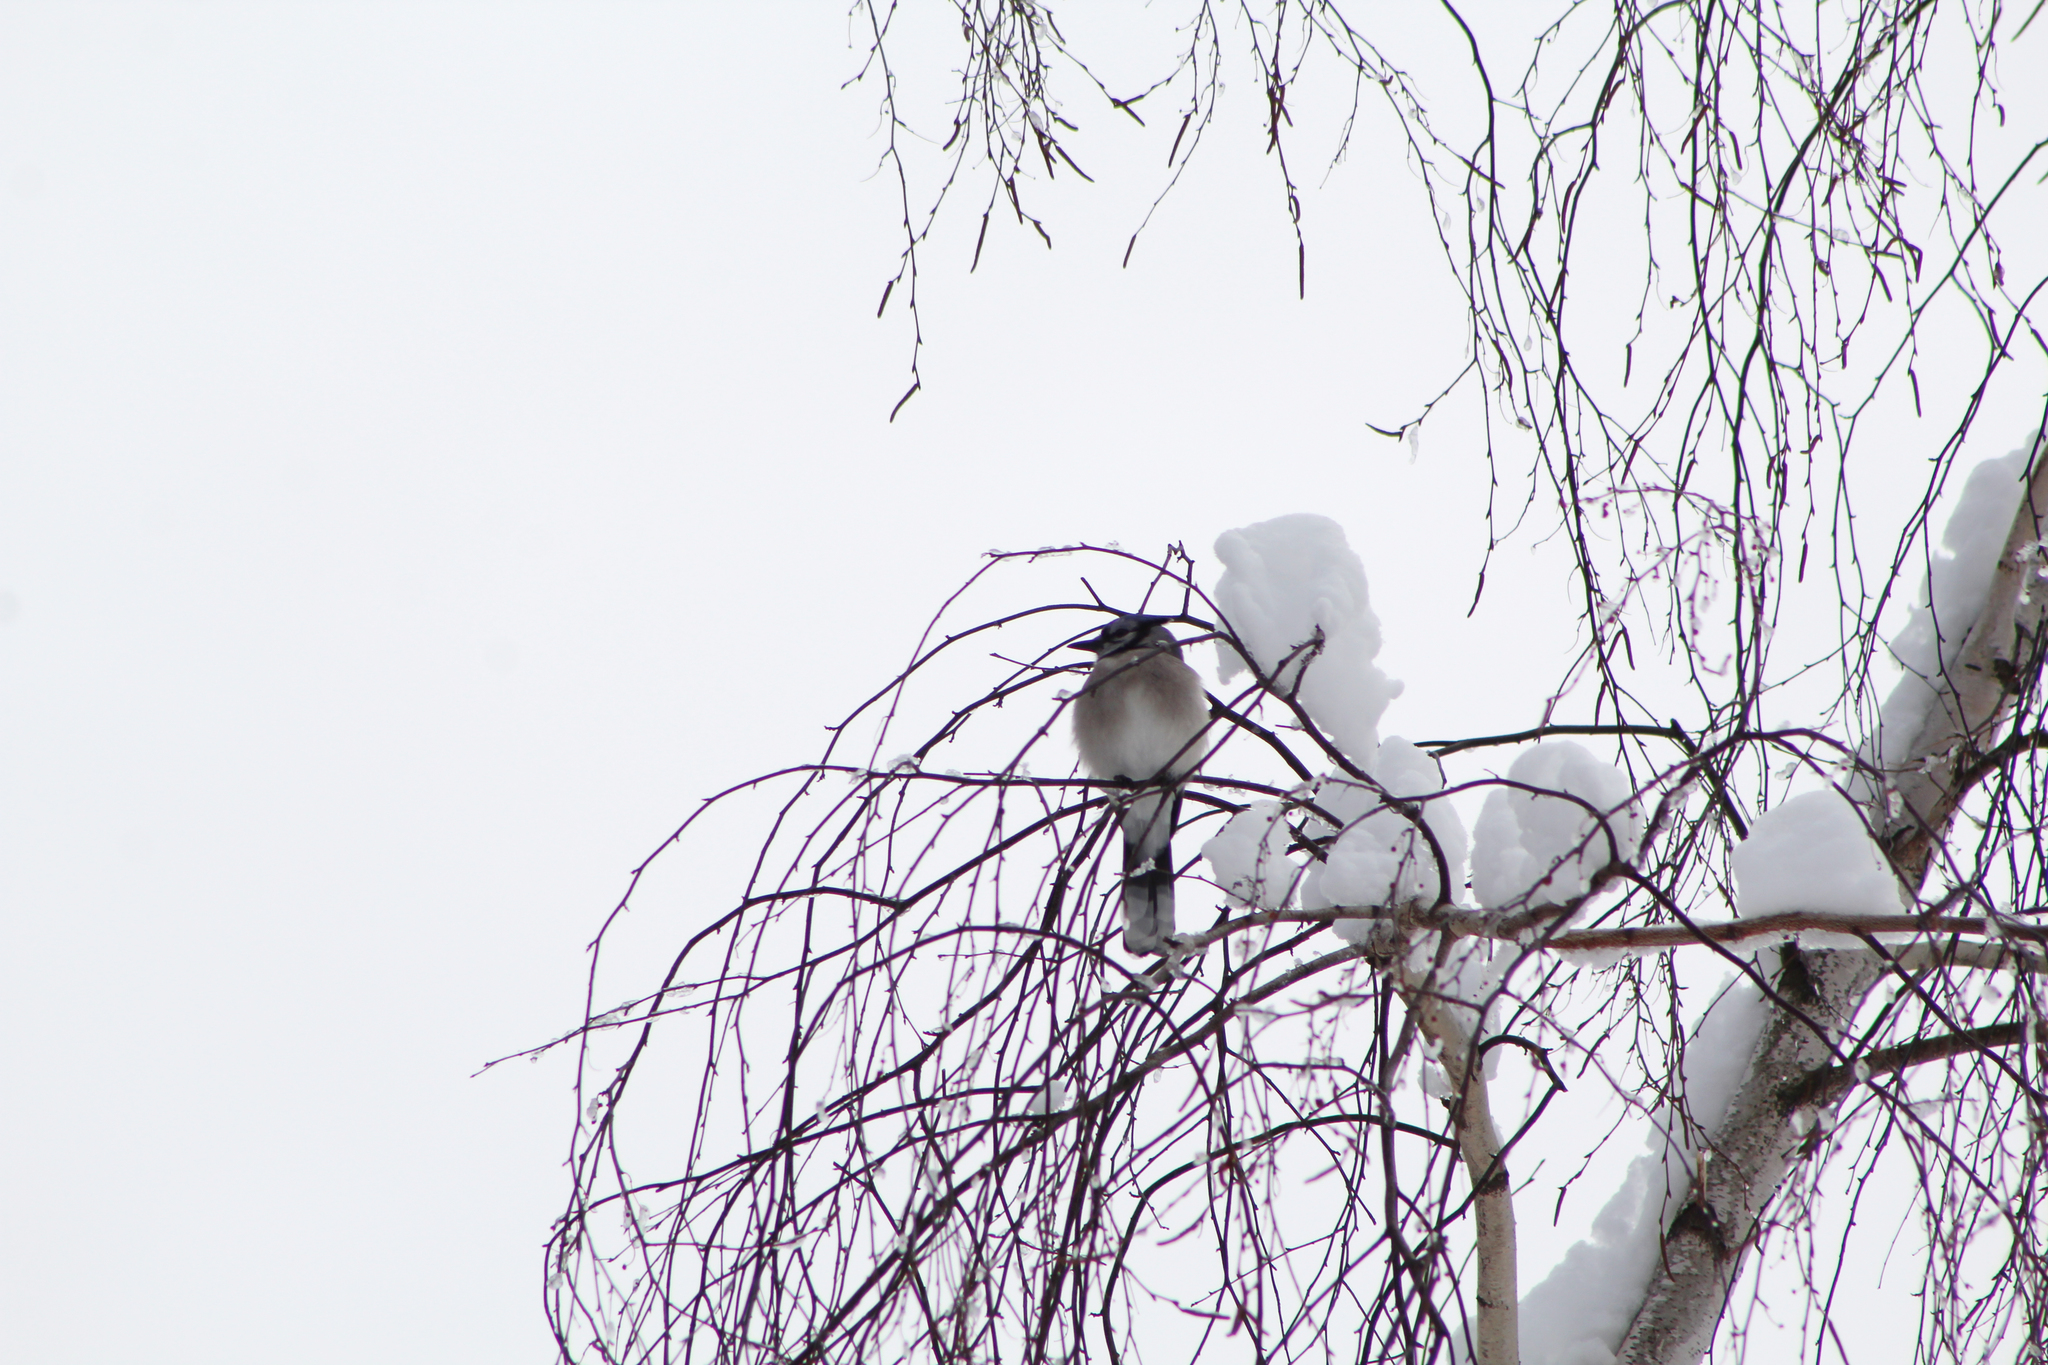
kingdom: Animalia
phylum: Chordata
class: Aves
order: Passeriformes
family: Corvidae
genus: Cyanocitta
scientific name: Cyanocitta cristata
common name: Blue jay
